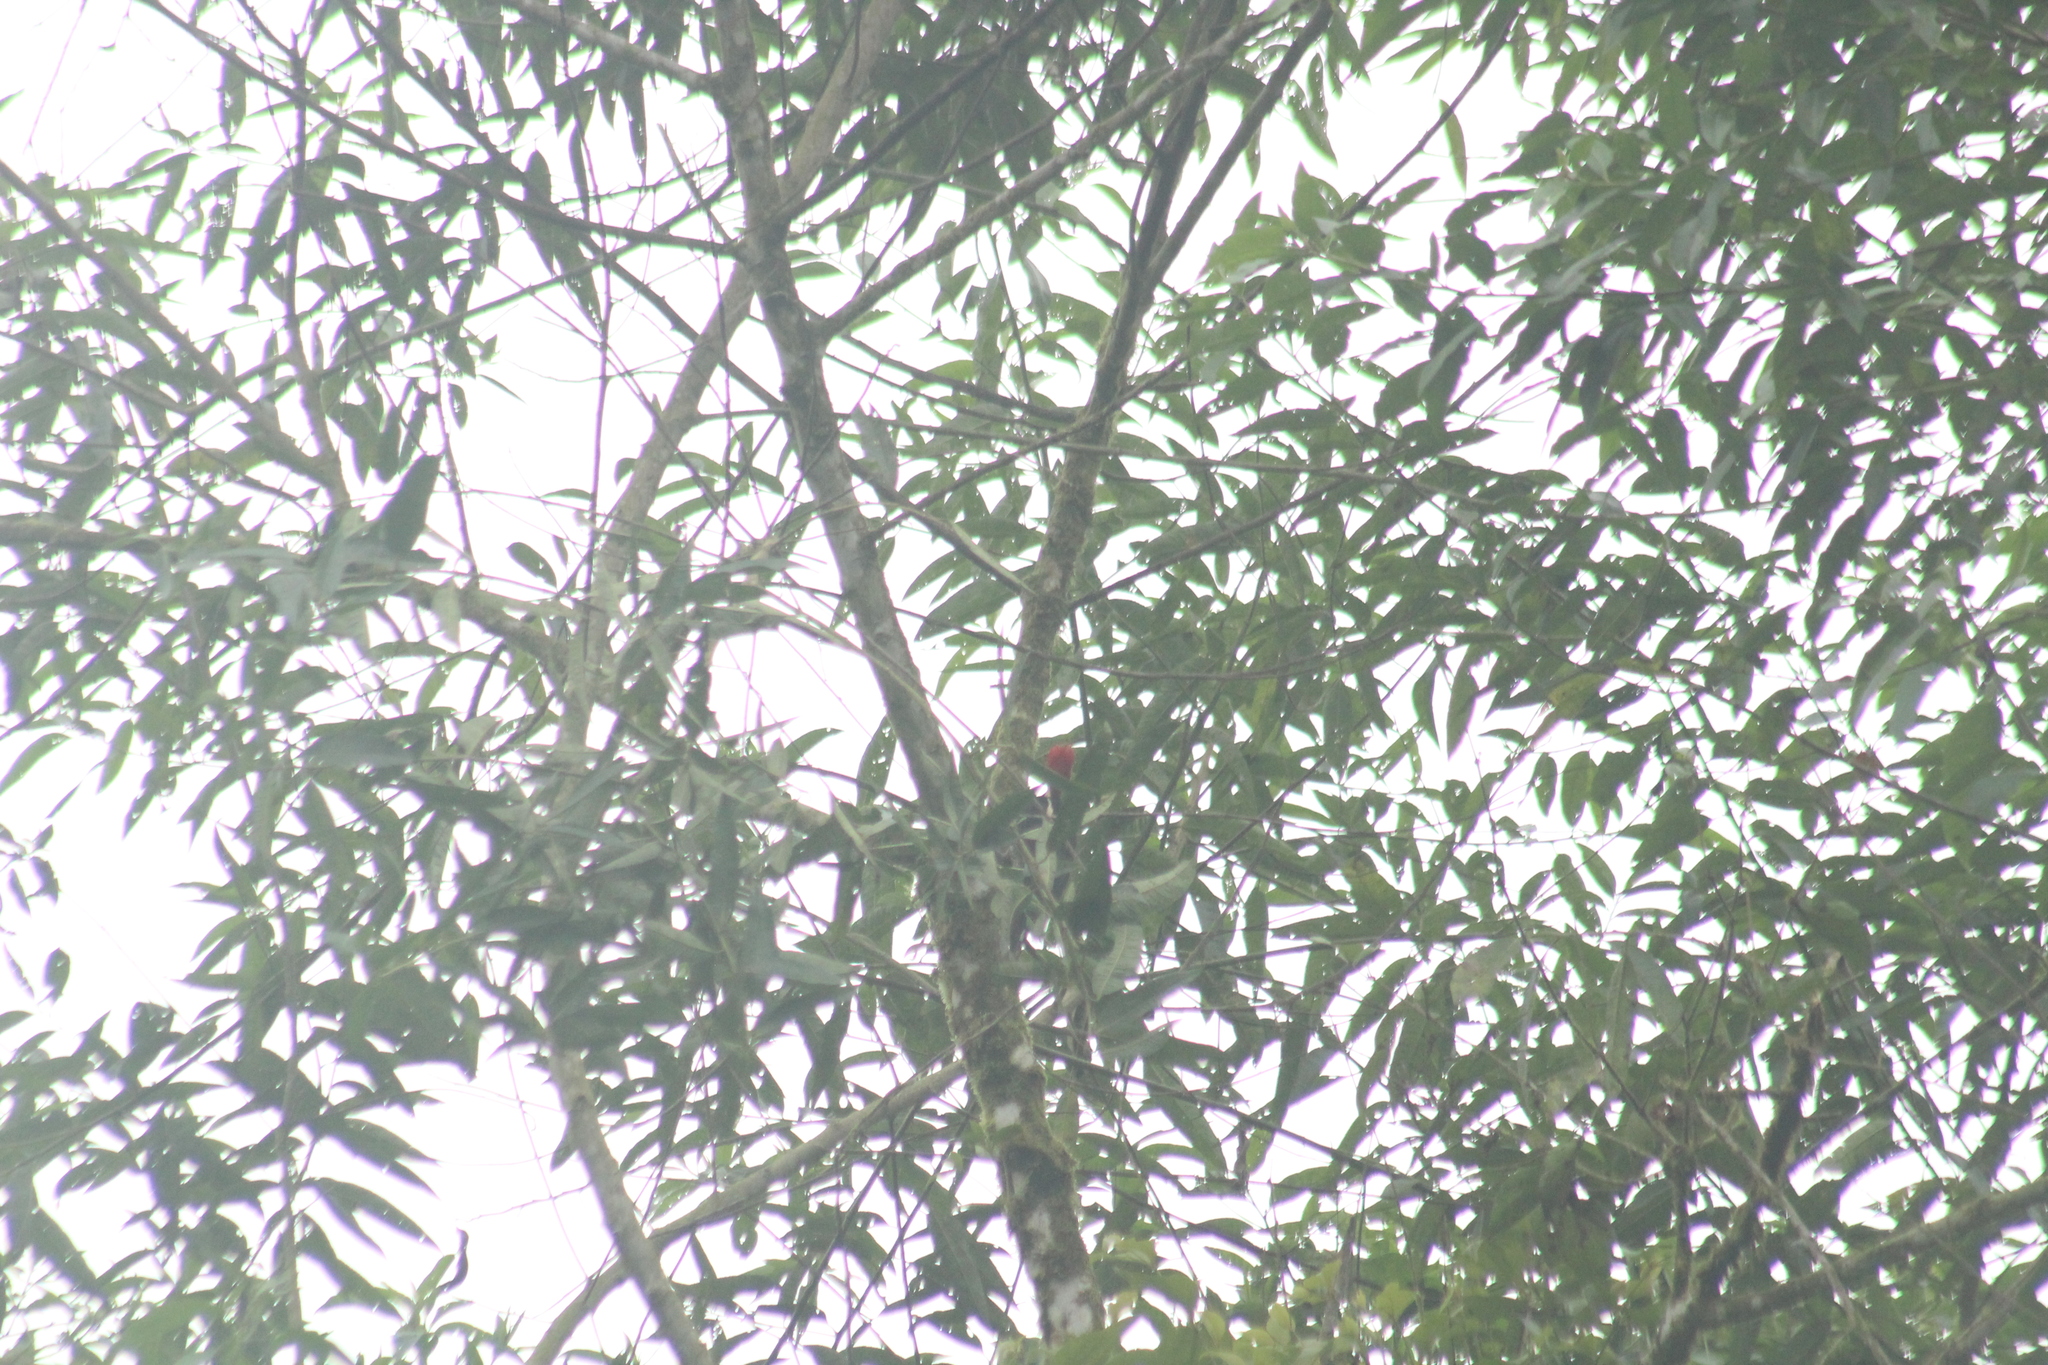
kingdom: Animalia
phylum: Chordata
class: Aves
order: Piciformes
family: Picidae
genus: Dryocopus
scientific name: Dryocopus lineatus
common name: Lineated woodpecker
